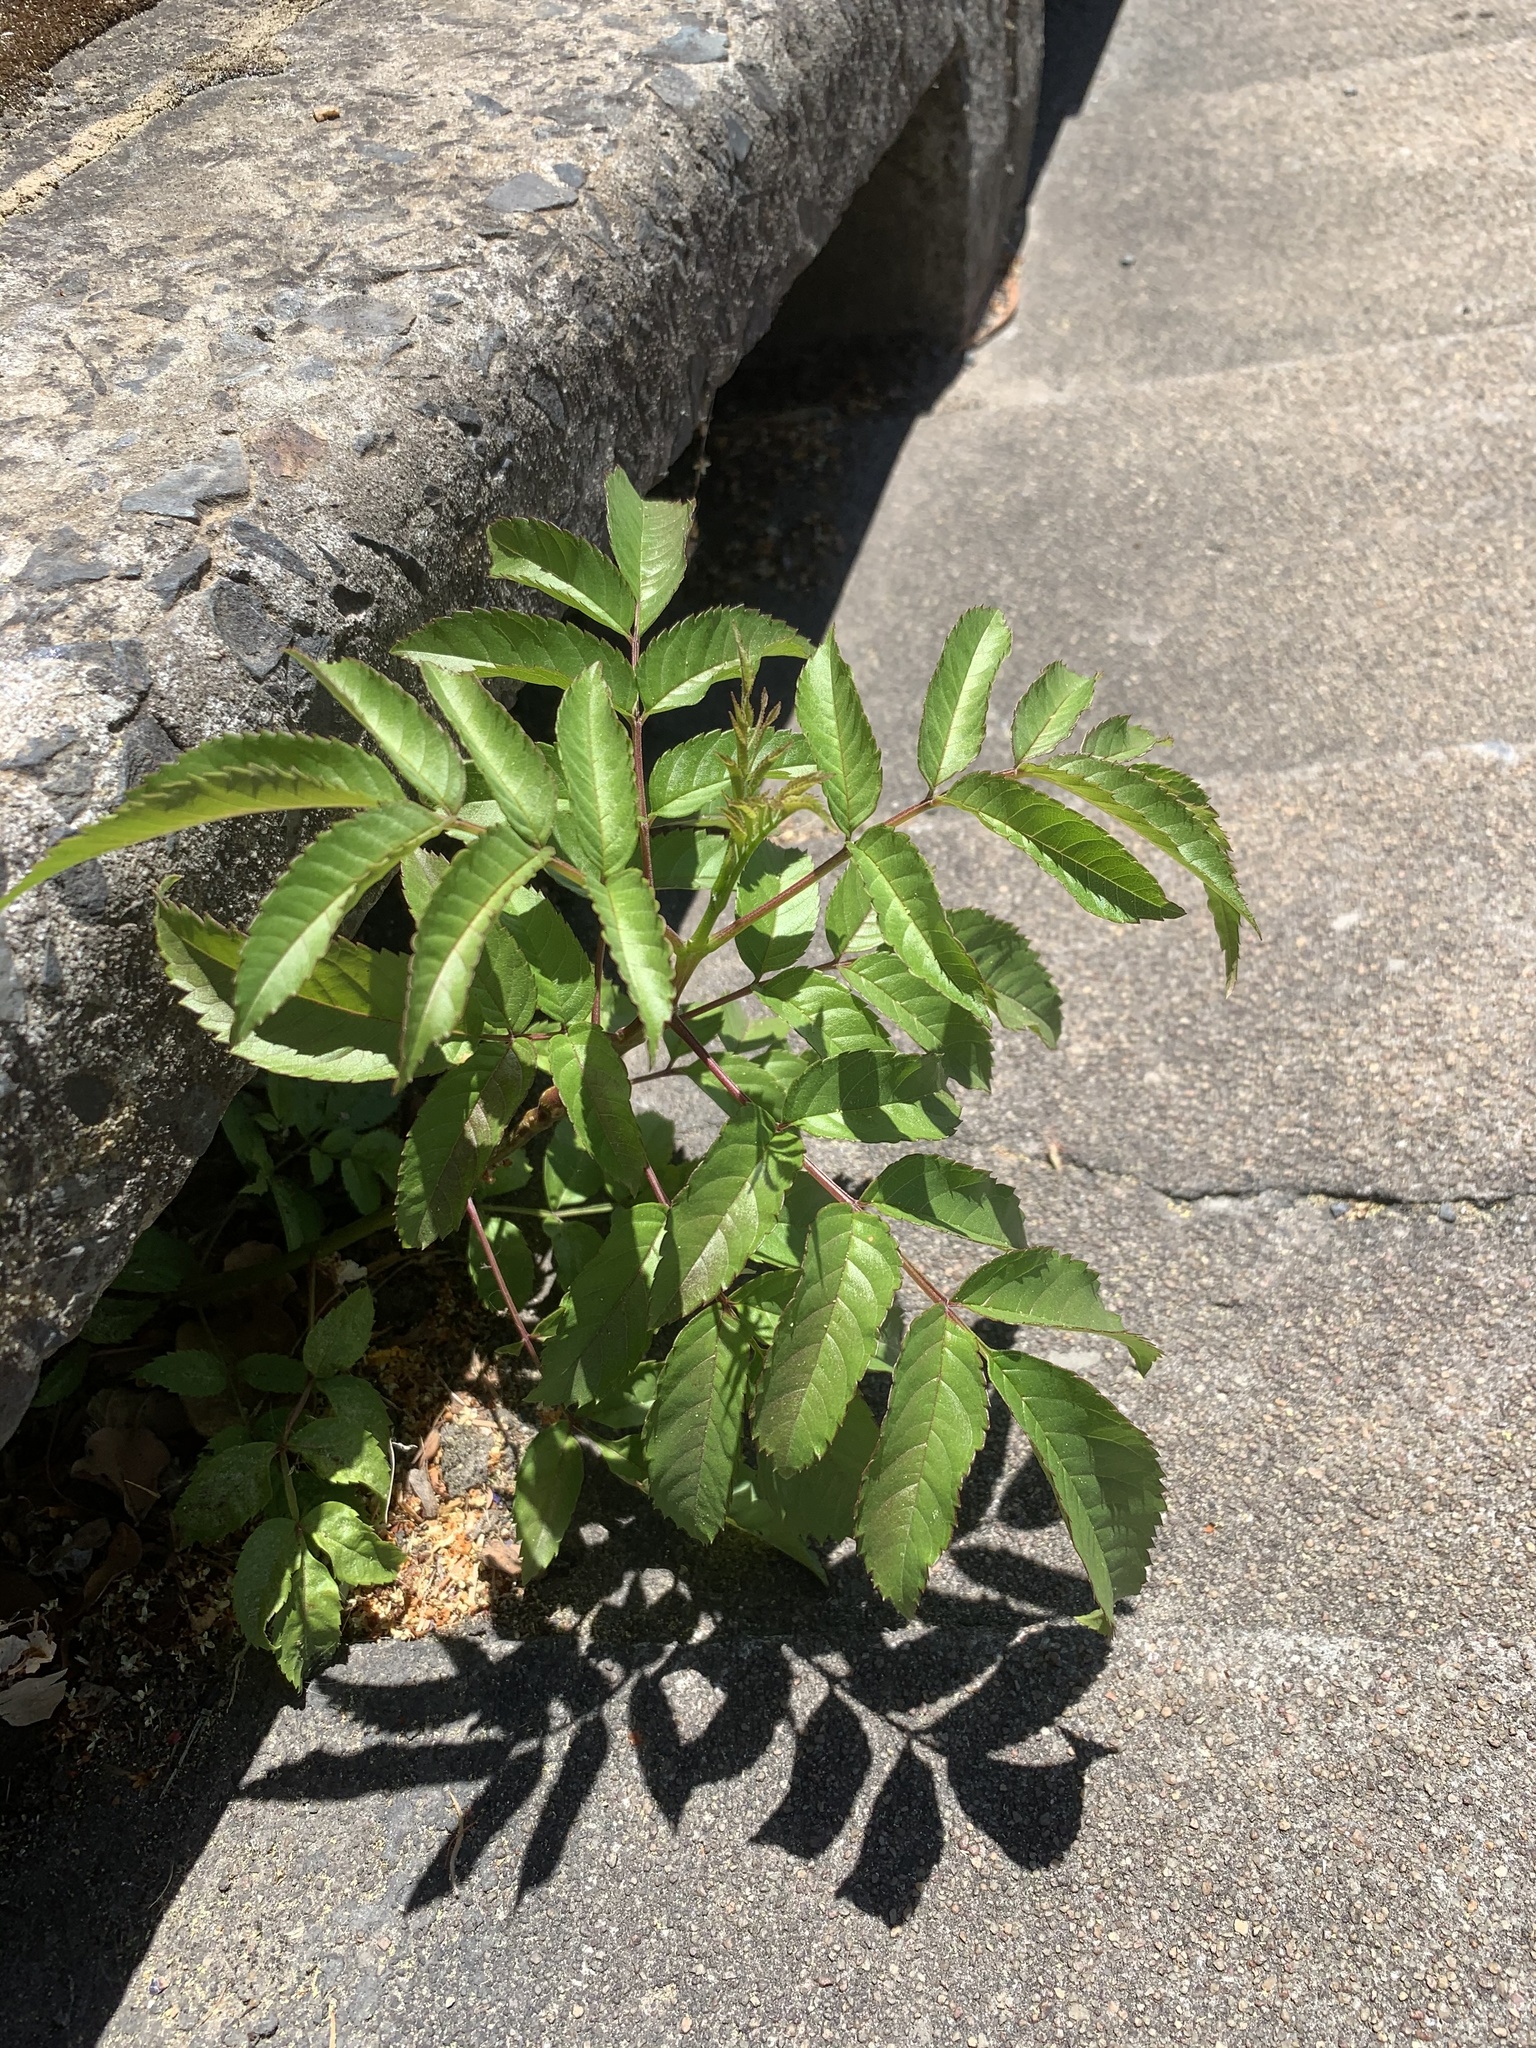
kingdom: Plantae
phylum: Tracheophyta
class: Magnoliopsida
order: Sapindales
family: Simaroubaceae
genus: Ailanthus
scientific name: Ailanthus altissima
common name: Tree-of-heaven
